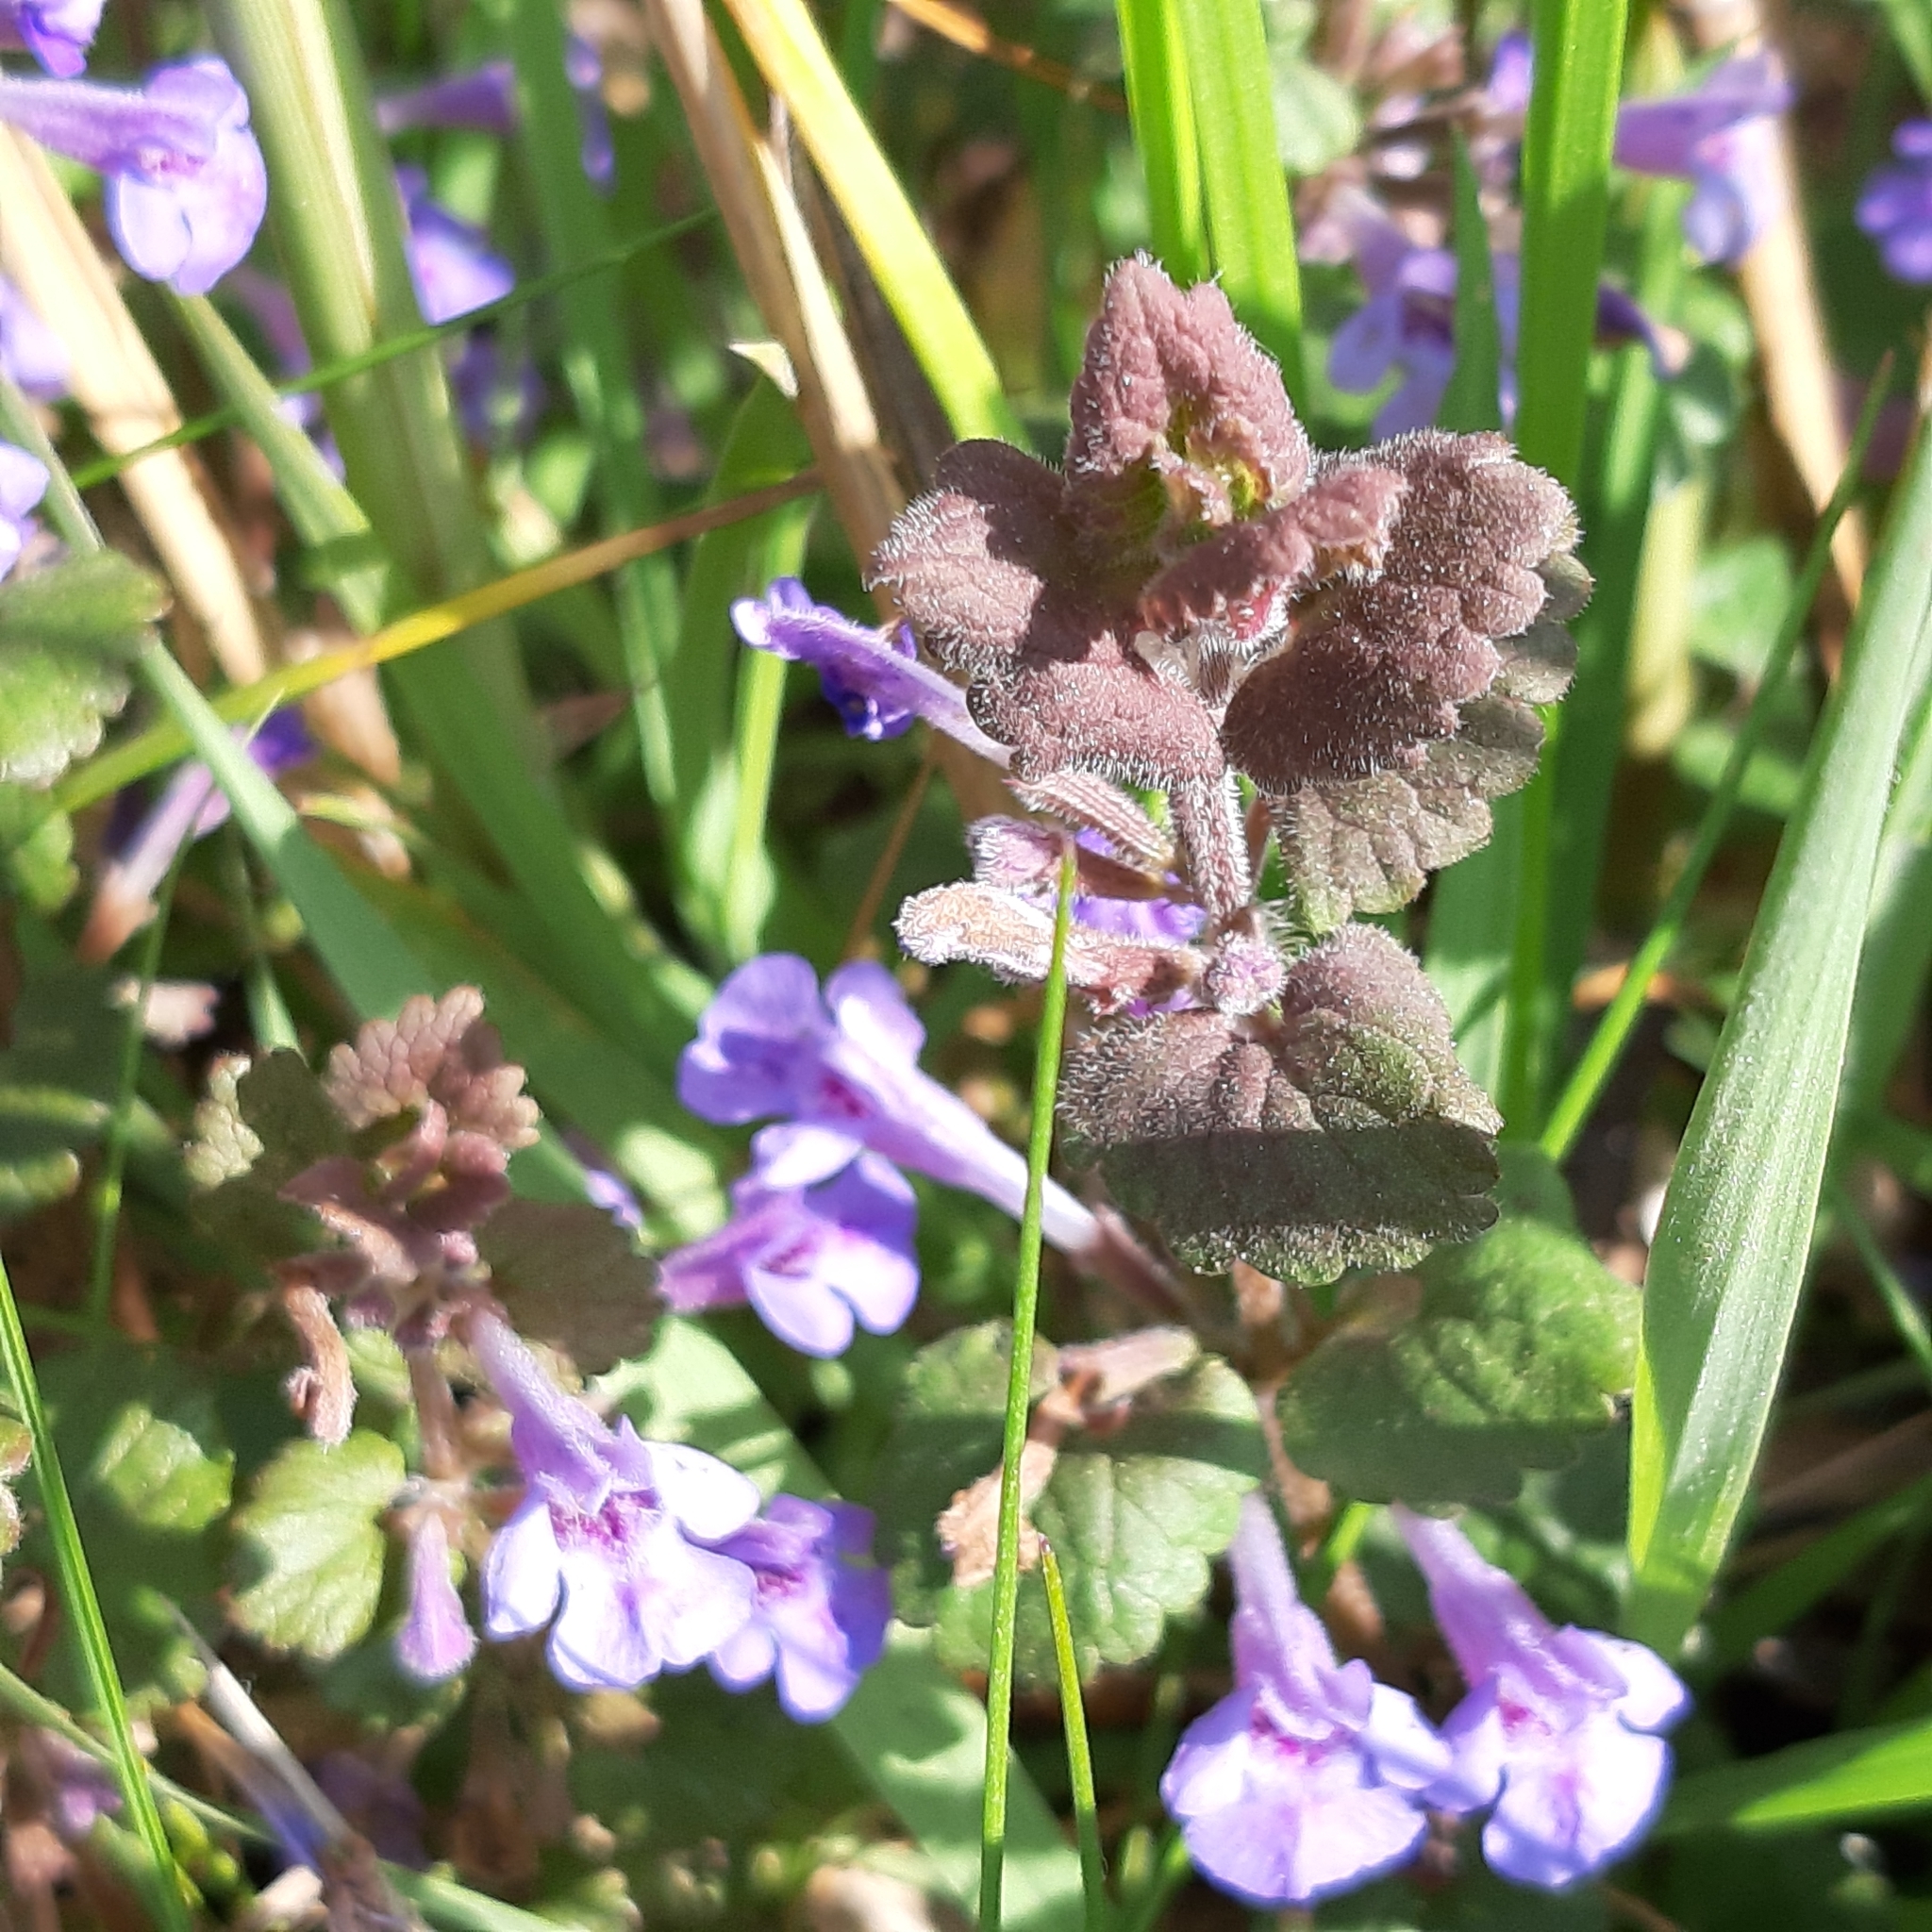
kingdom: Plantae
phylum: Tracheophyta
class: Magnoliopsida
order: Lamiales
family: Lamiaceae
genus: Glechoma
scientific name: Glechoma hederacea
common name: Ground ivy
